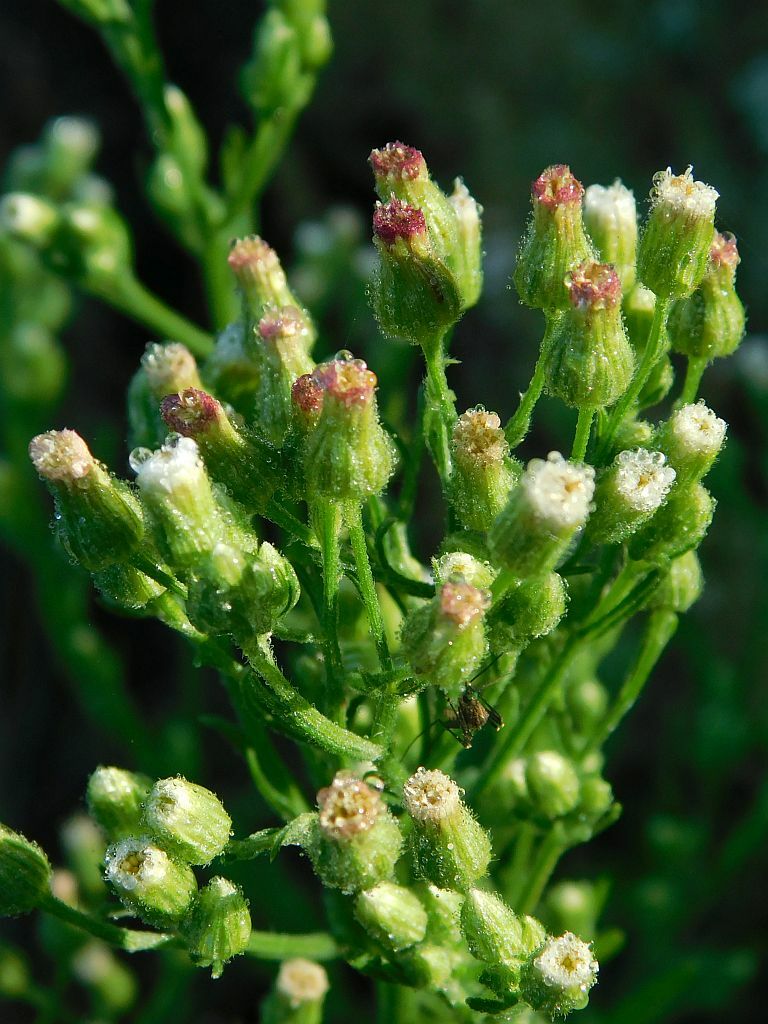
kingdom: Plantae
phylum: Tracheophyta
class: Magnoliopsida
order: Asterales
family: Asteraceae
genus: Erigeron
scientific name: Erigeron sumatrensis
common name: Daisy
